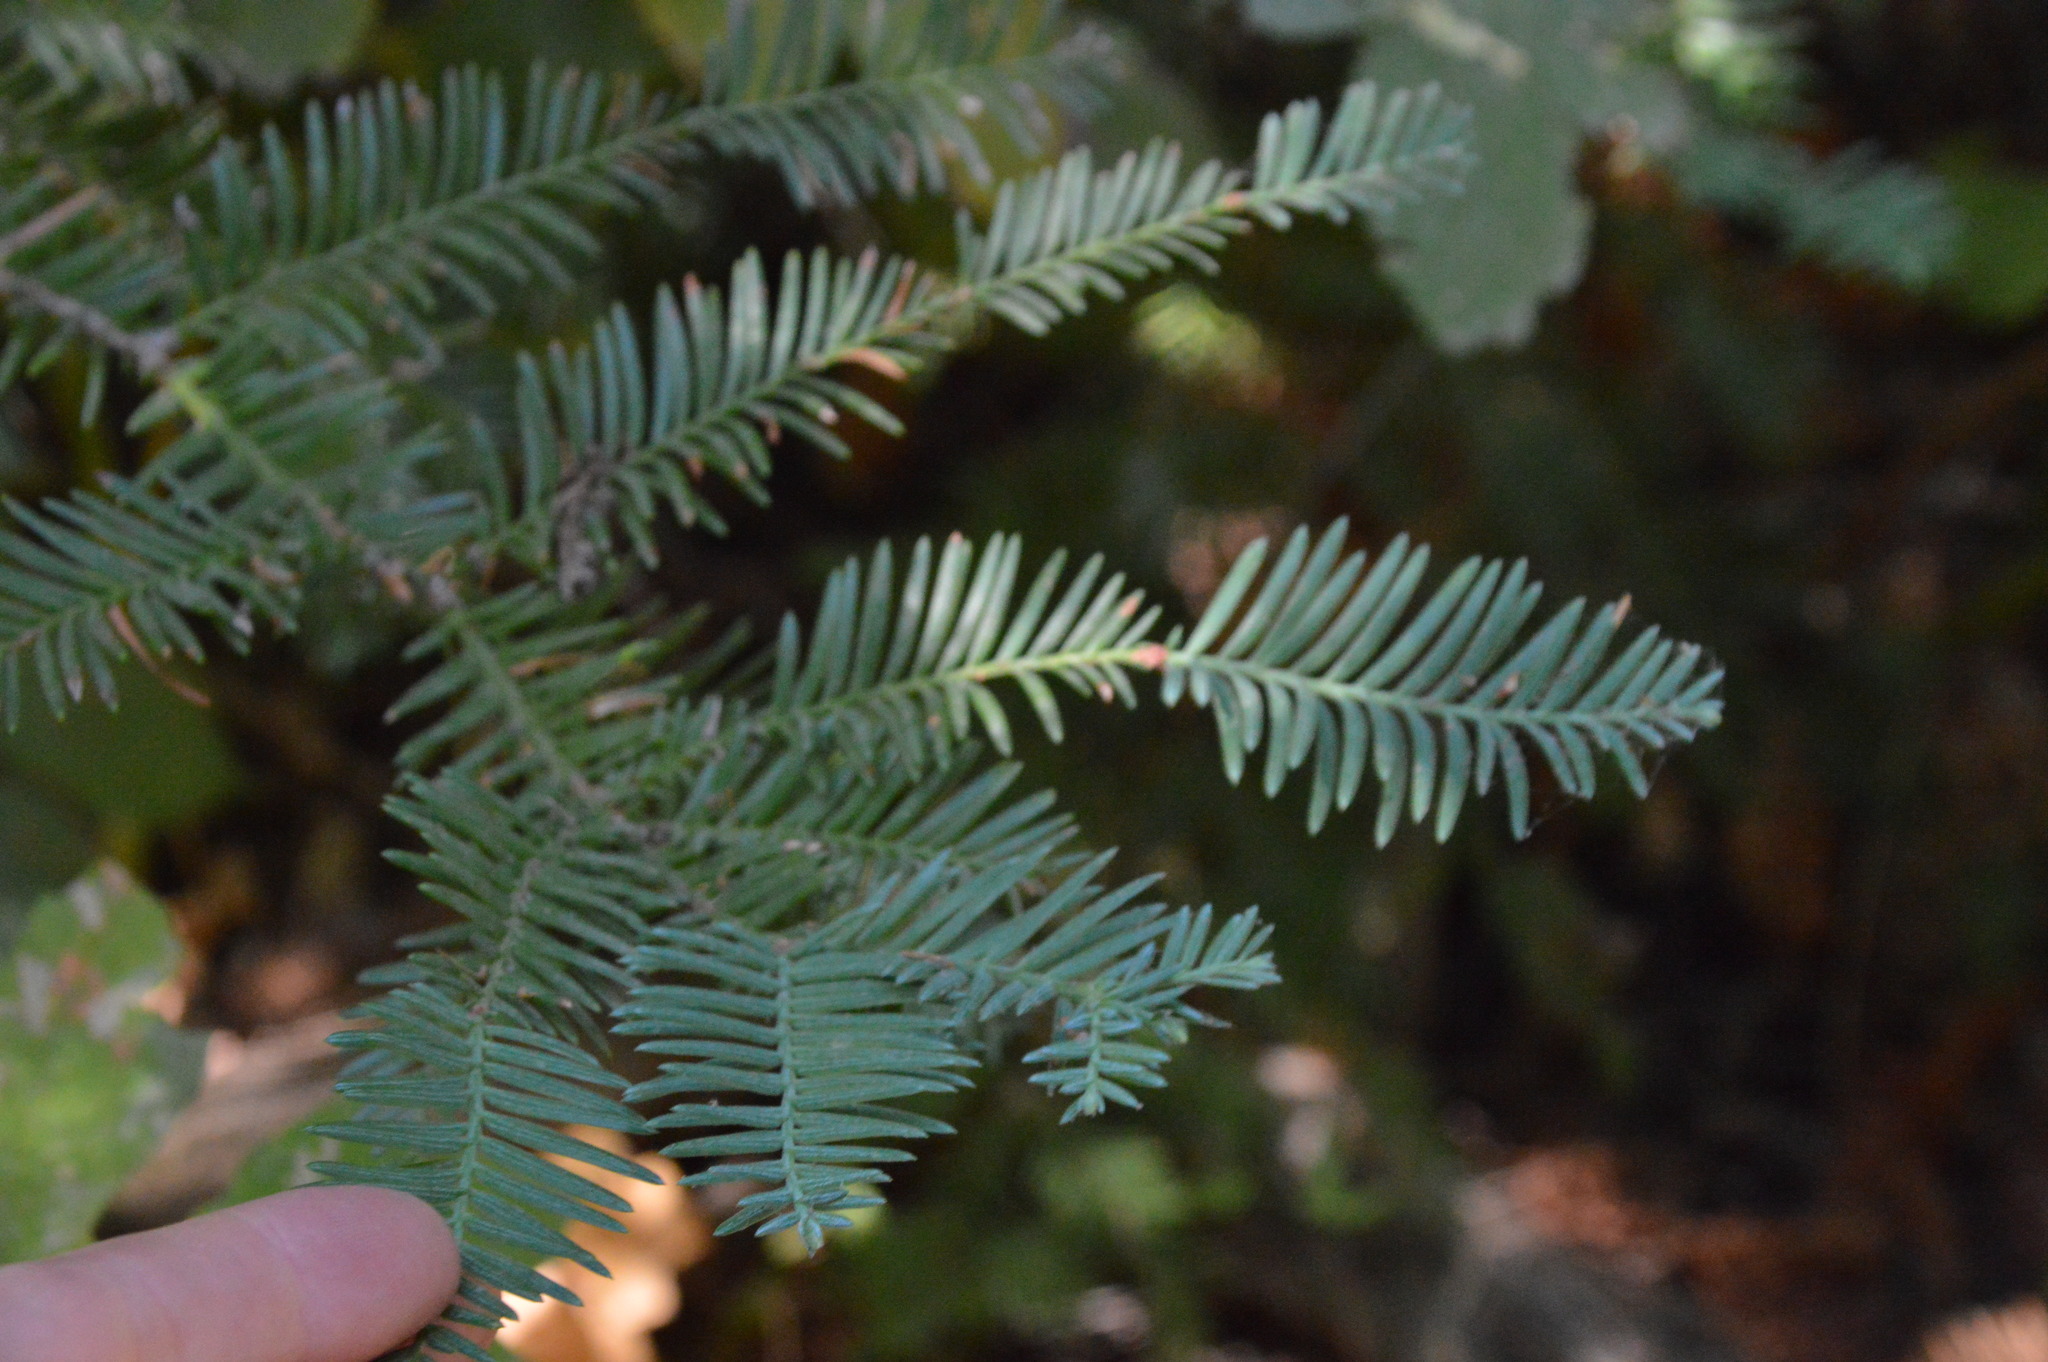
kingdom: Plantae
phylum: Tracheophyta
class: Pinopsida
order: Pinales
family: Cupressaceae
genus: Sequoia
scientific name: Sequoia sempervirens
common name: Coast redwood
